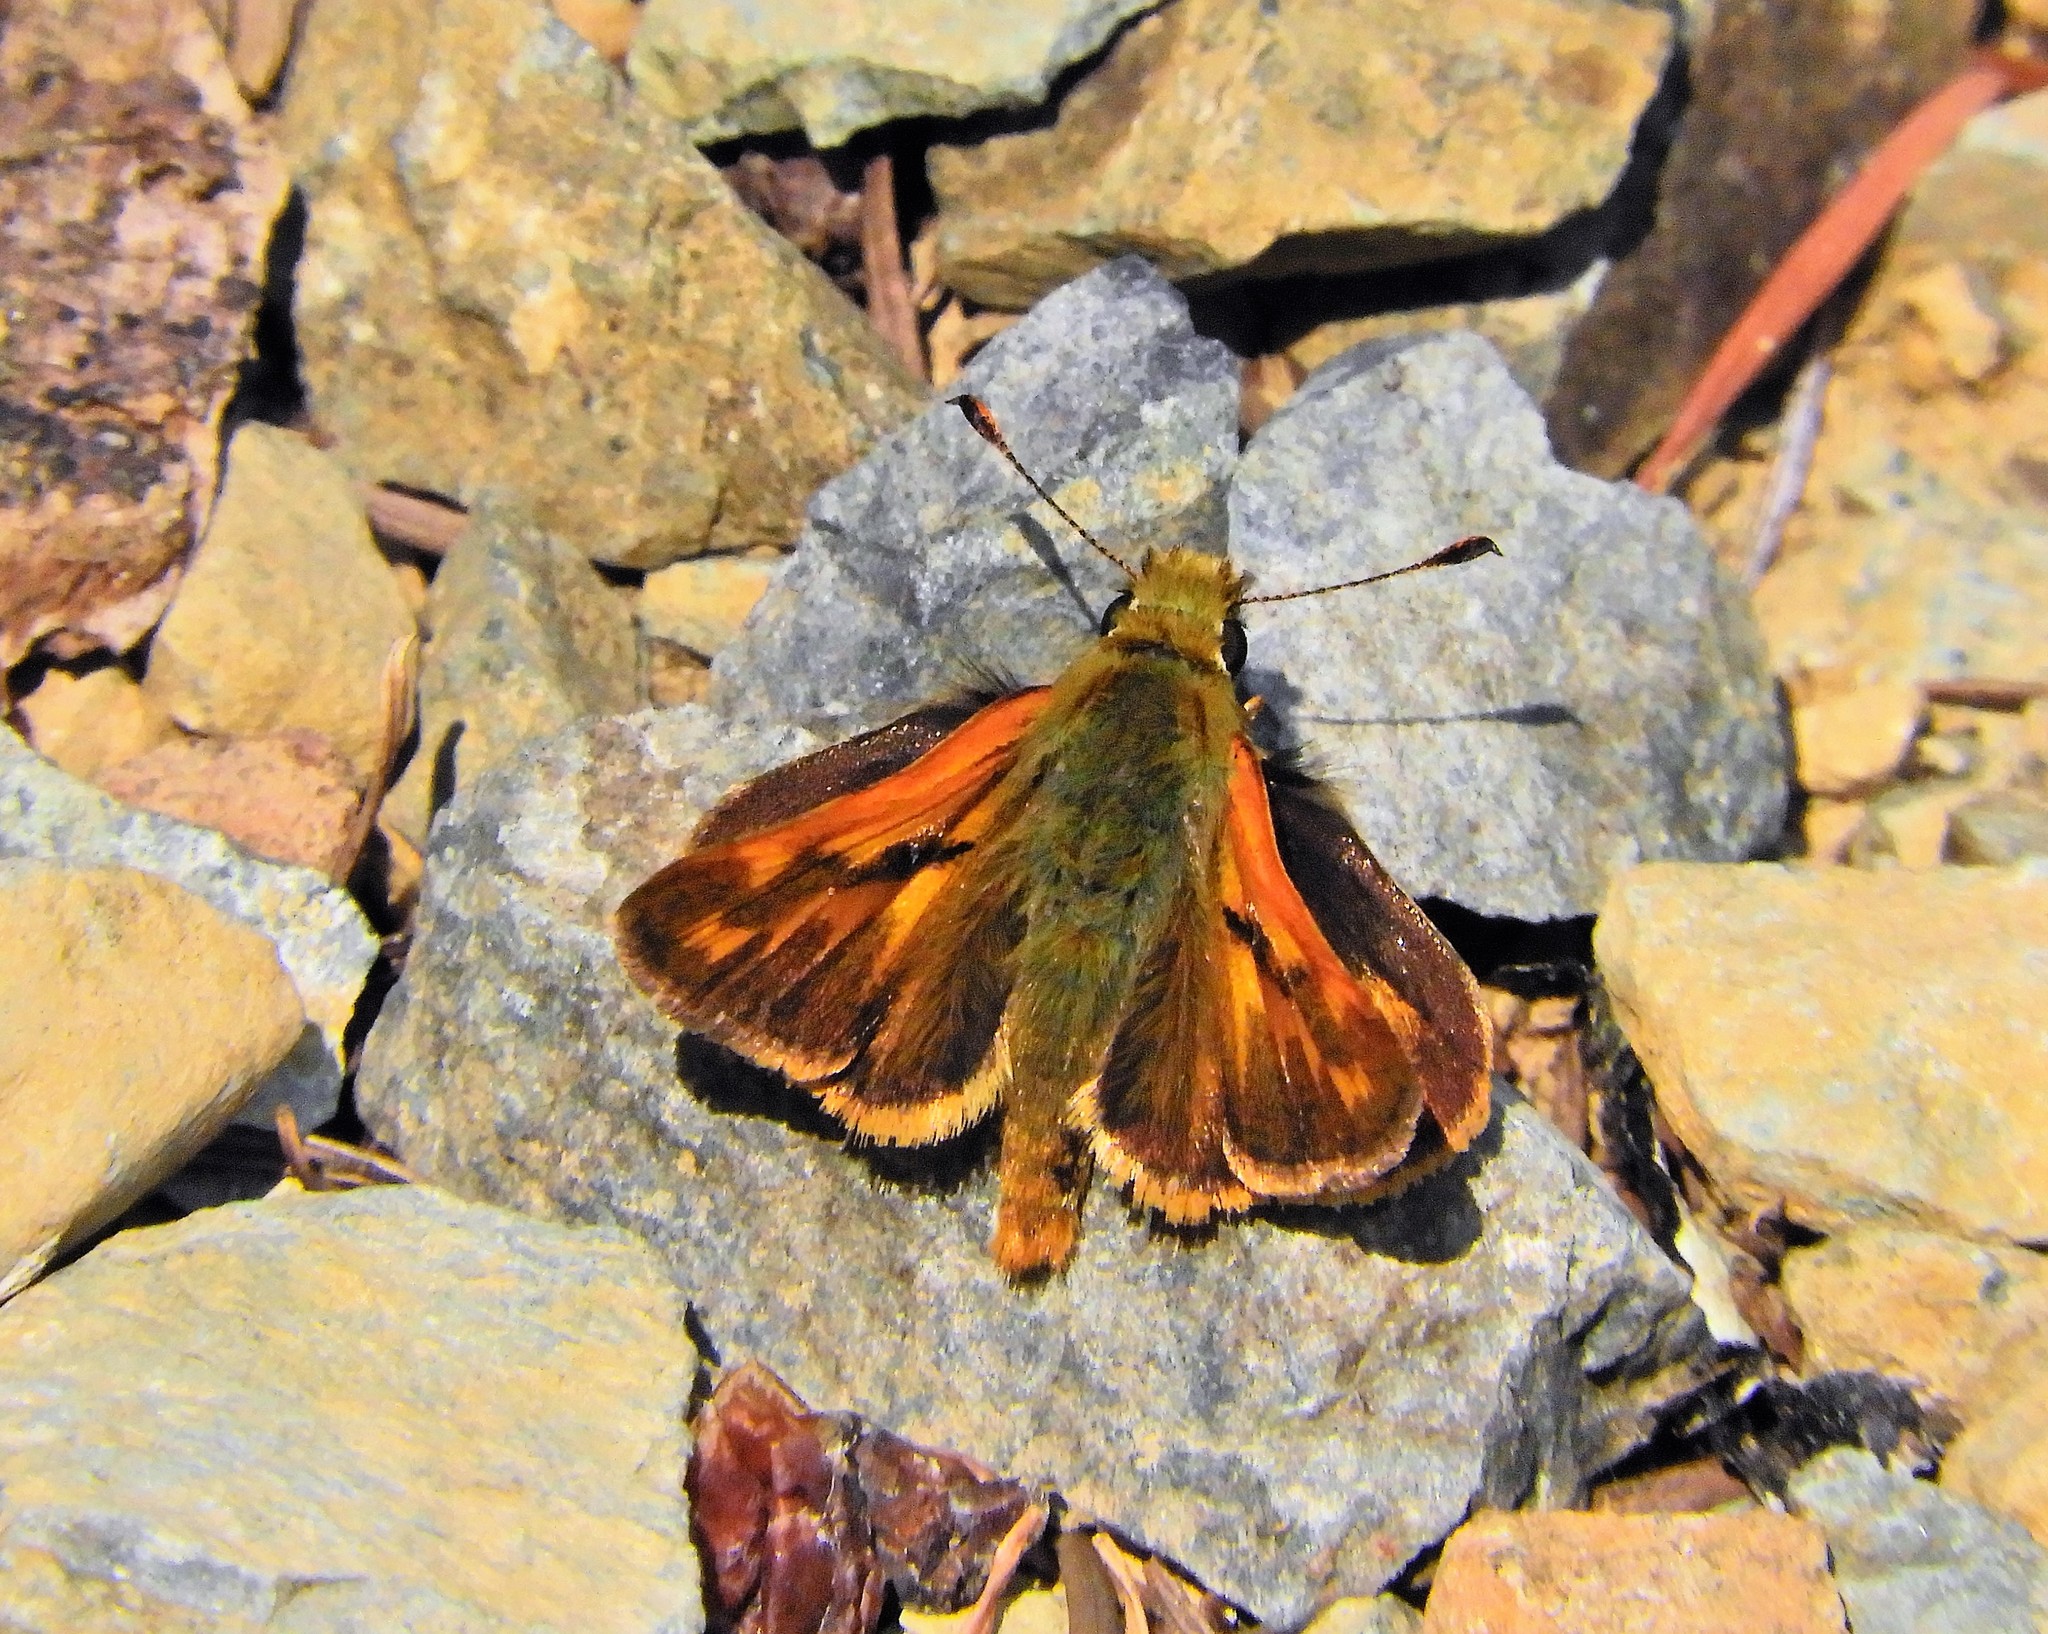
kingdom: Animalia
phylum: Arthropoda
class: Insecta
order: Lepidoptera
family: Hesperiidae
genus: Ochlodes
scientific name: Ochlodes sylvanoides
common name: Woodland skipper
